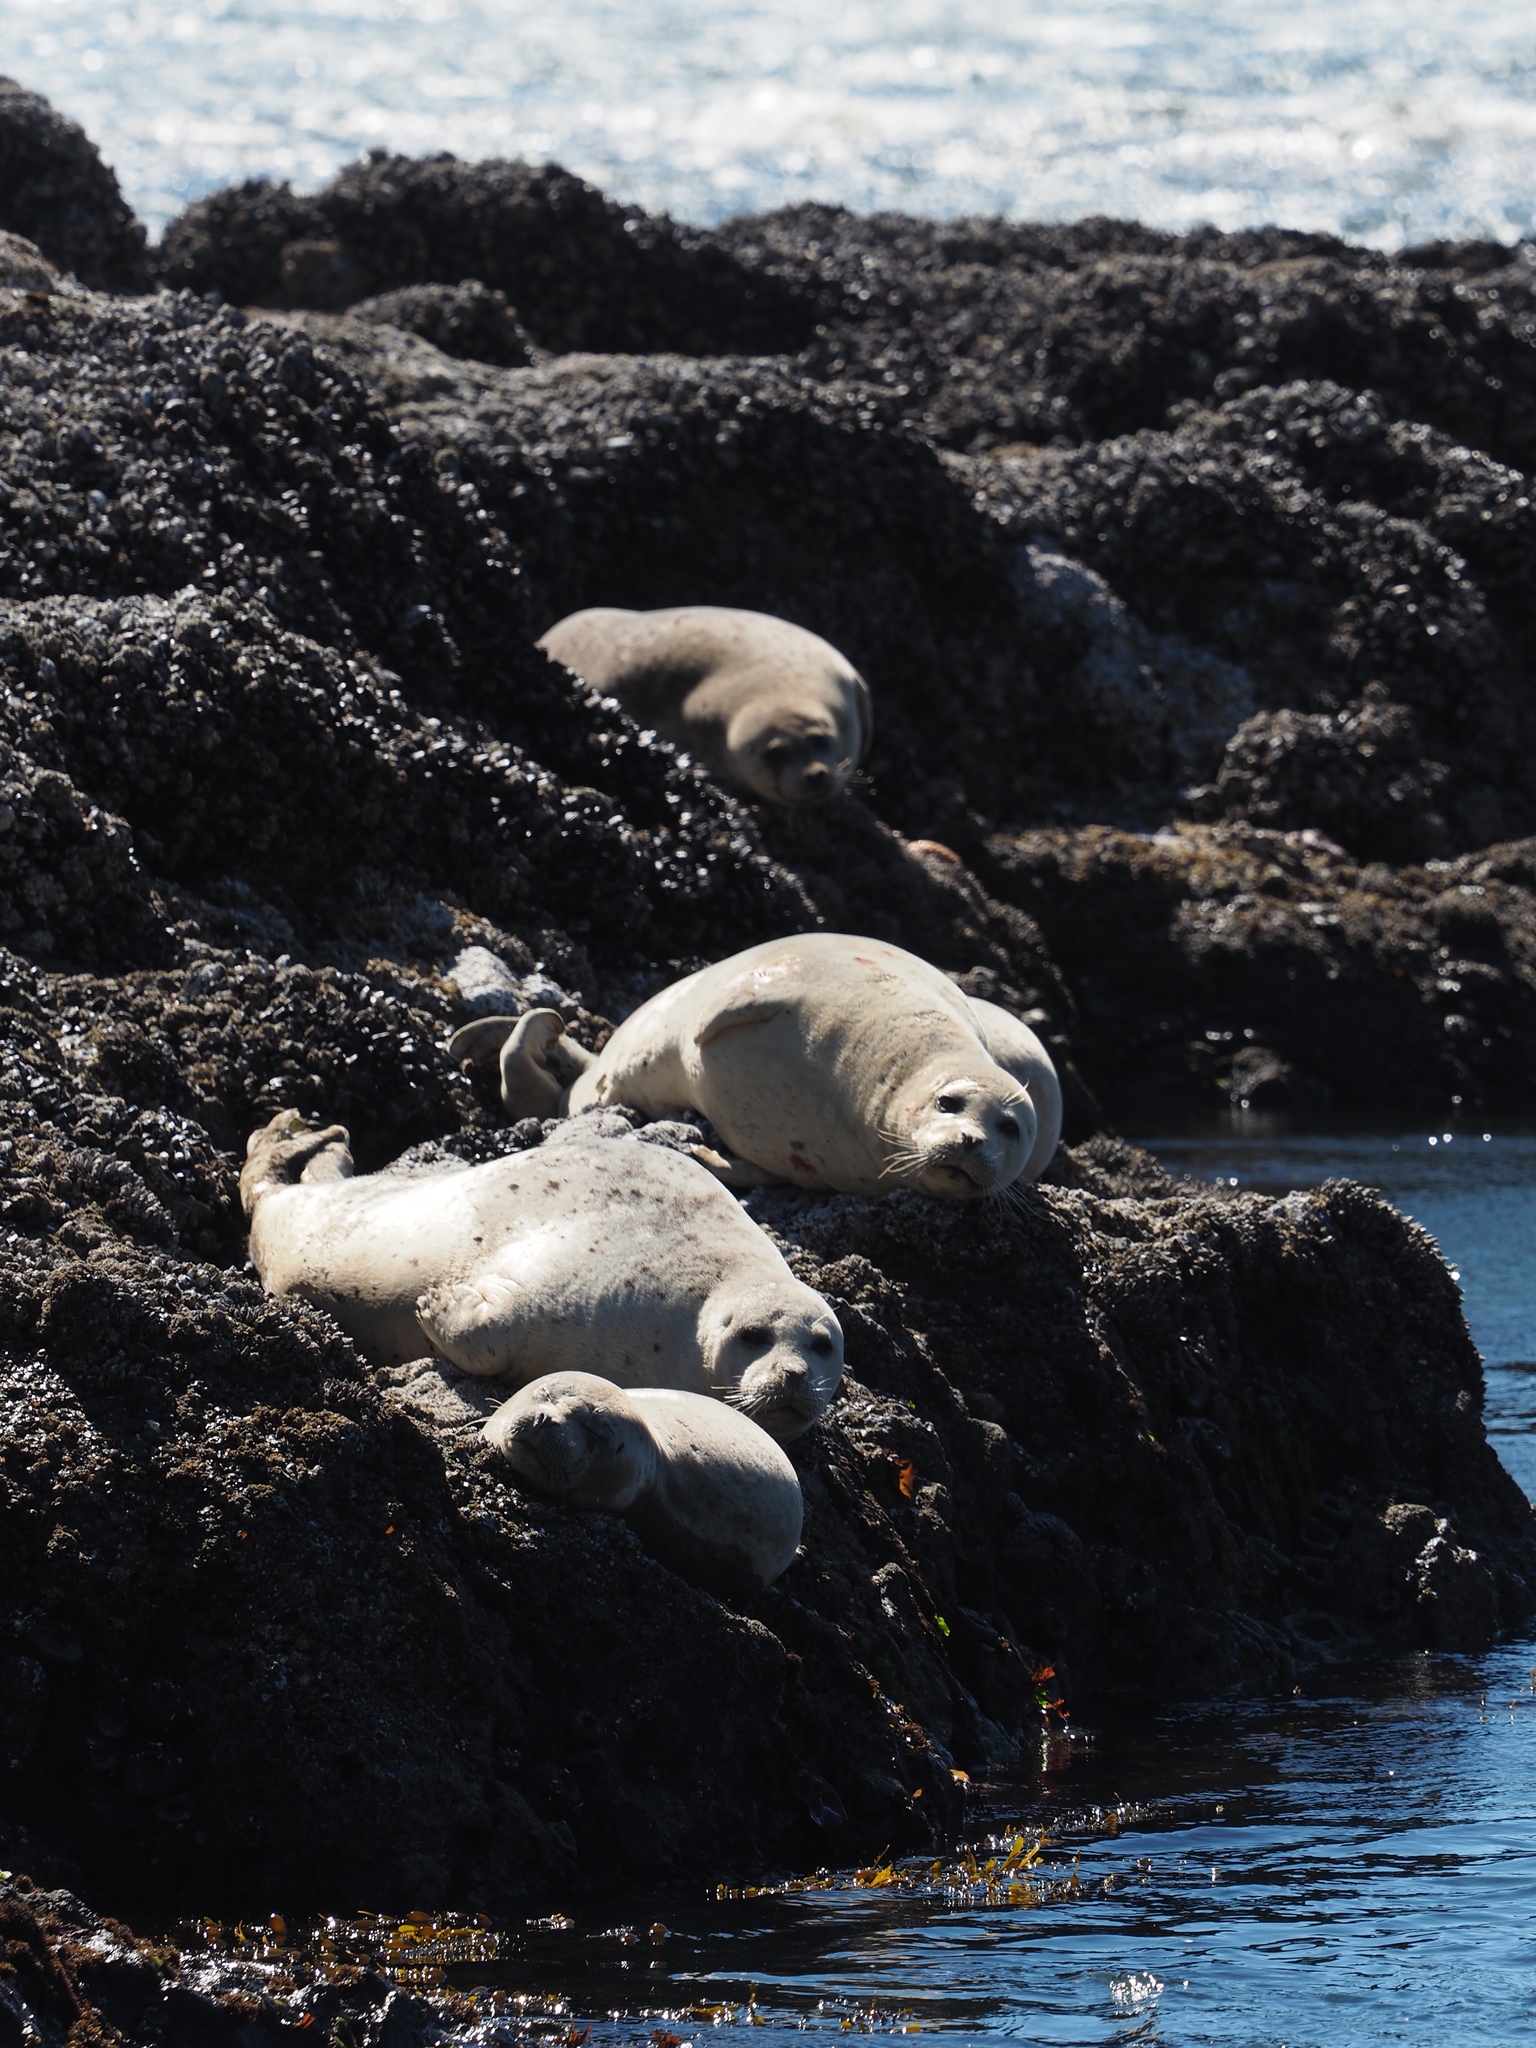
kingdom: Animalia
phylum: Chordata
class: Mammalia
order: Carnivora
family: Phocidae
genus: Phoca
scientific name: Phoca vitulina
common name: Harbor seal
